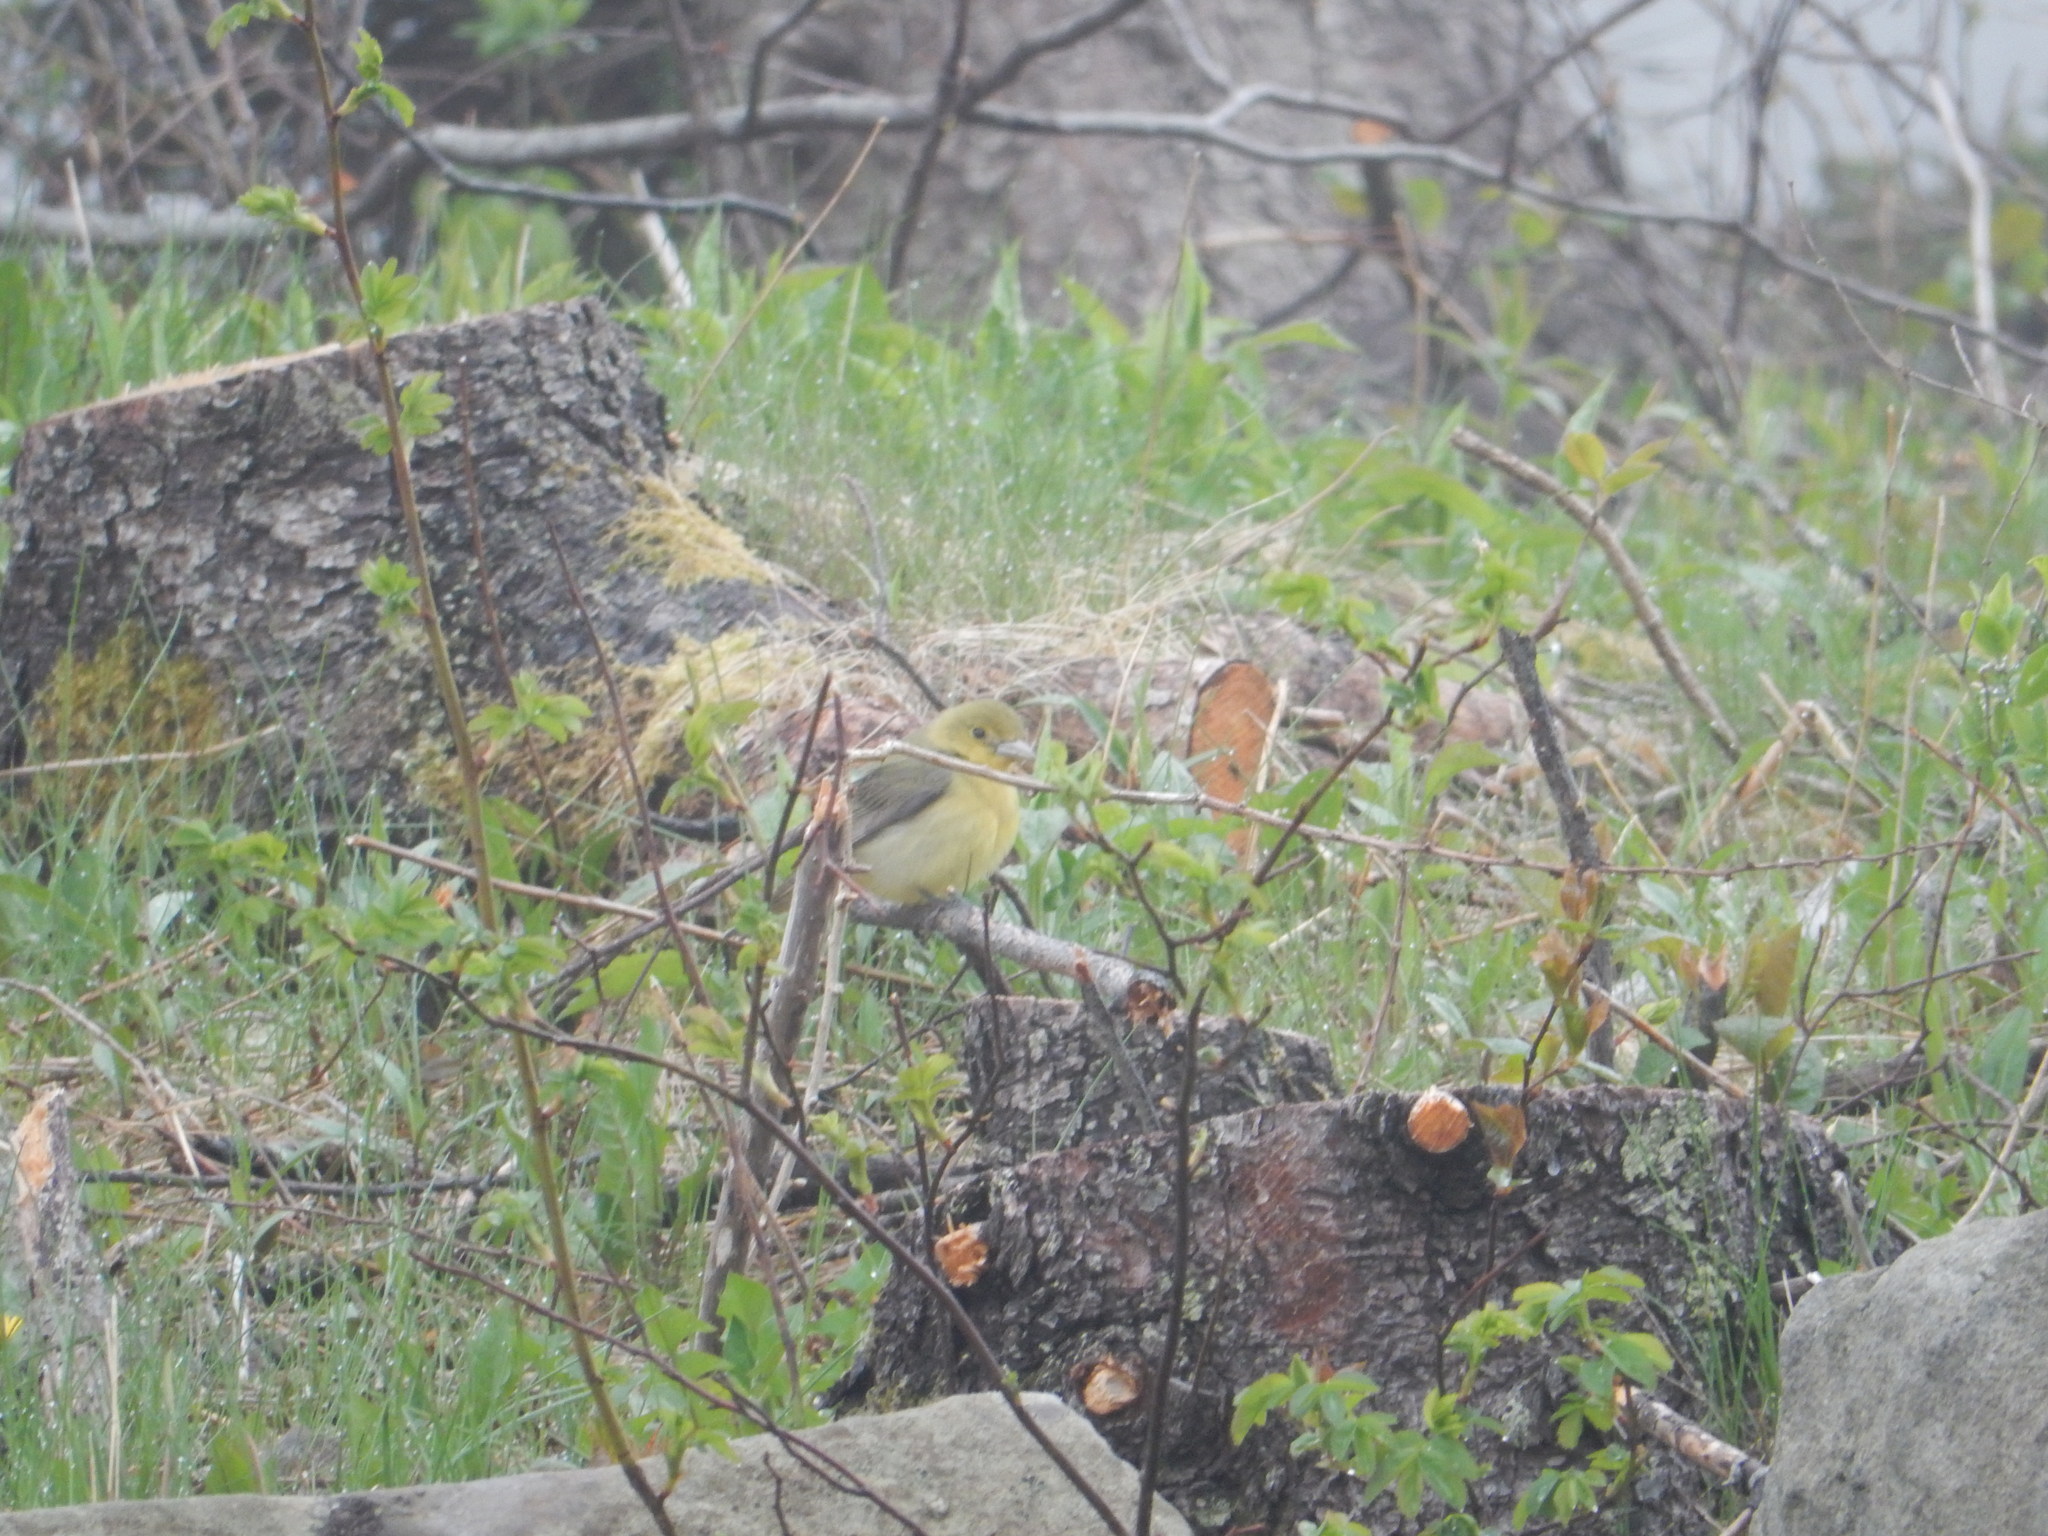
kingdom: Animalia
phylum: Chordata
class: Aves
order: Passeriformes
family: Cardinalidae
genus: Piranga
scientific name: Piranga olivacea
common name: Scarlet tanager
